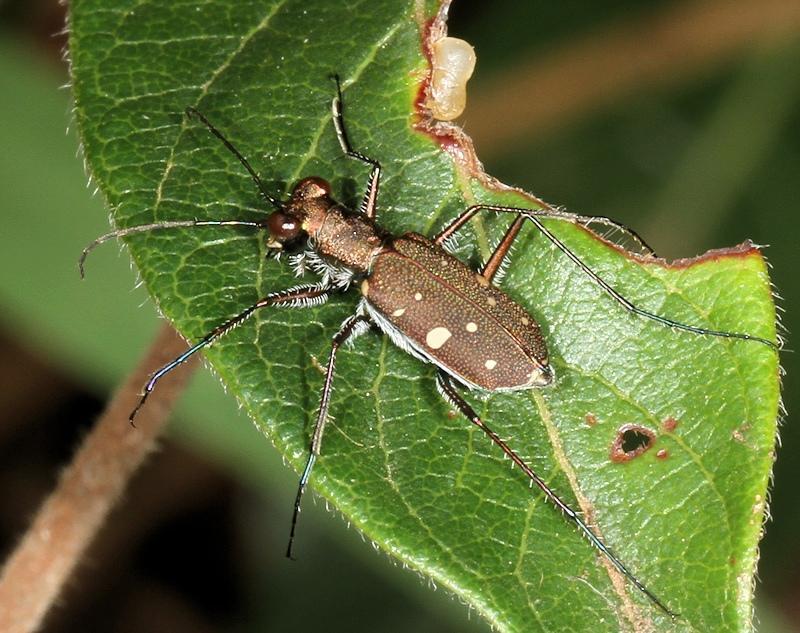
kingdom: Animalia
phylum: Arthropoda
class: Insecta
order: Coleoptera
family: Carabidae
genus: Cylindera
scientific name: Cylindera disjuncta
